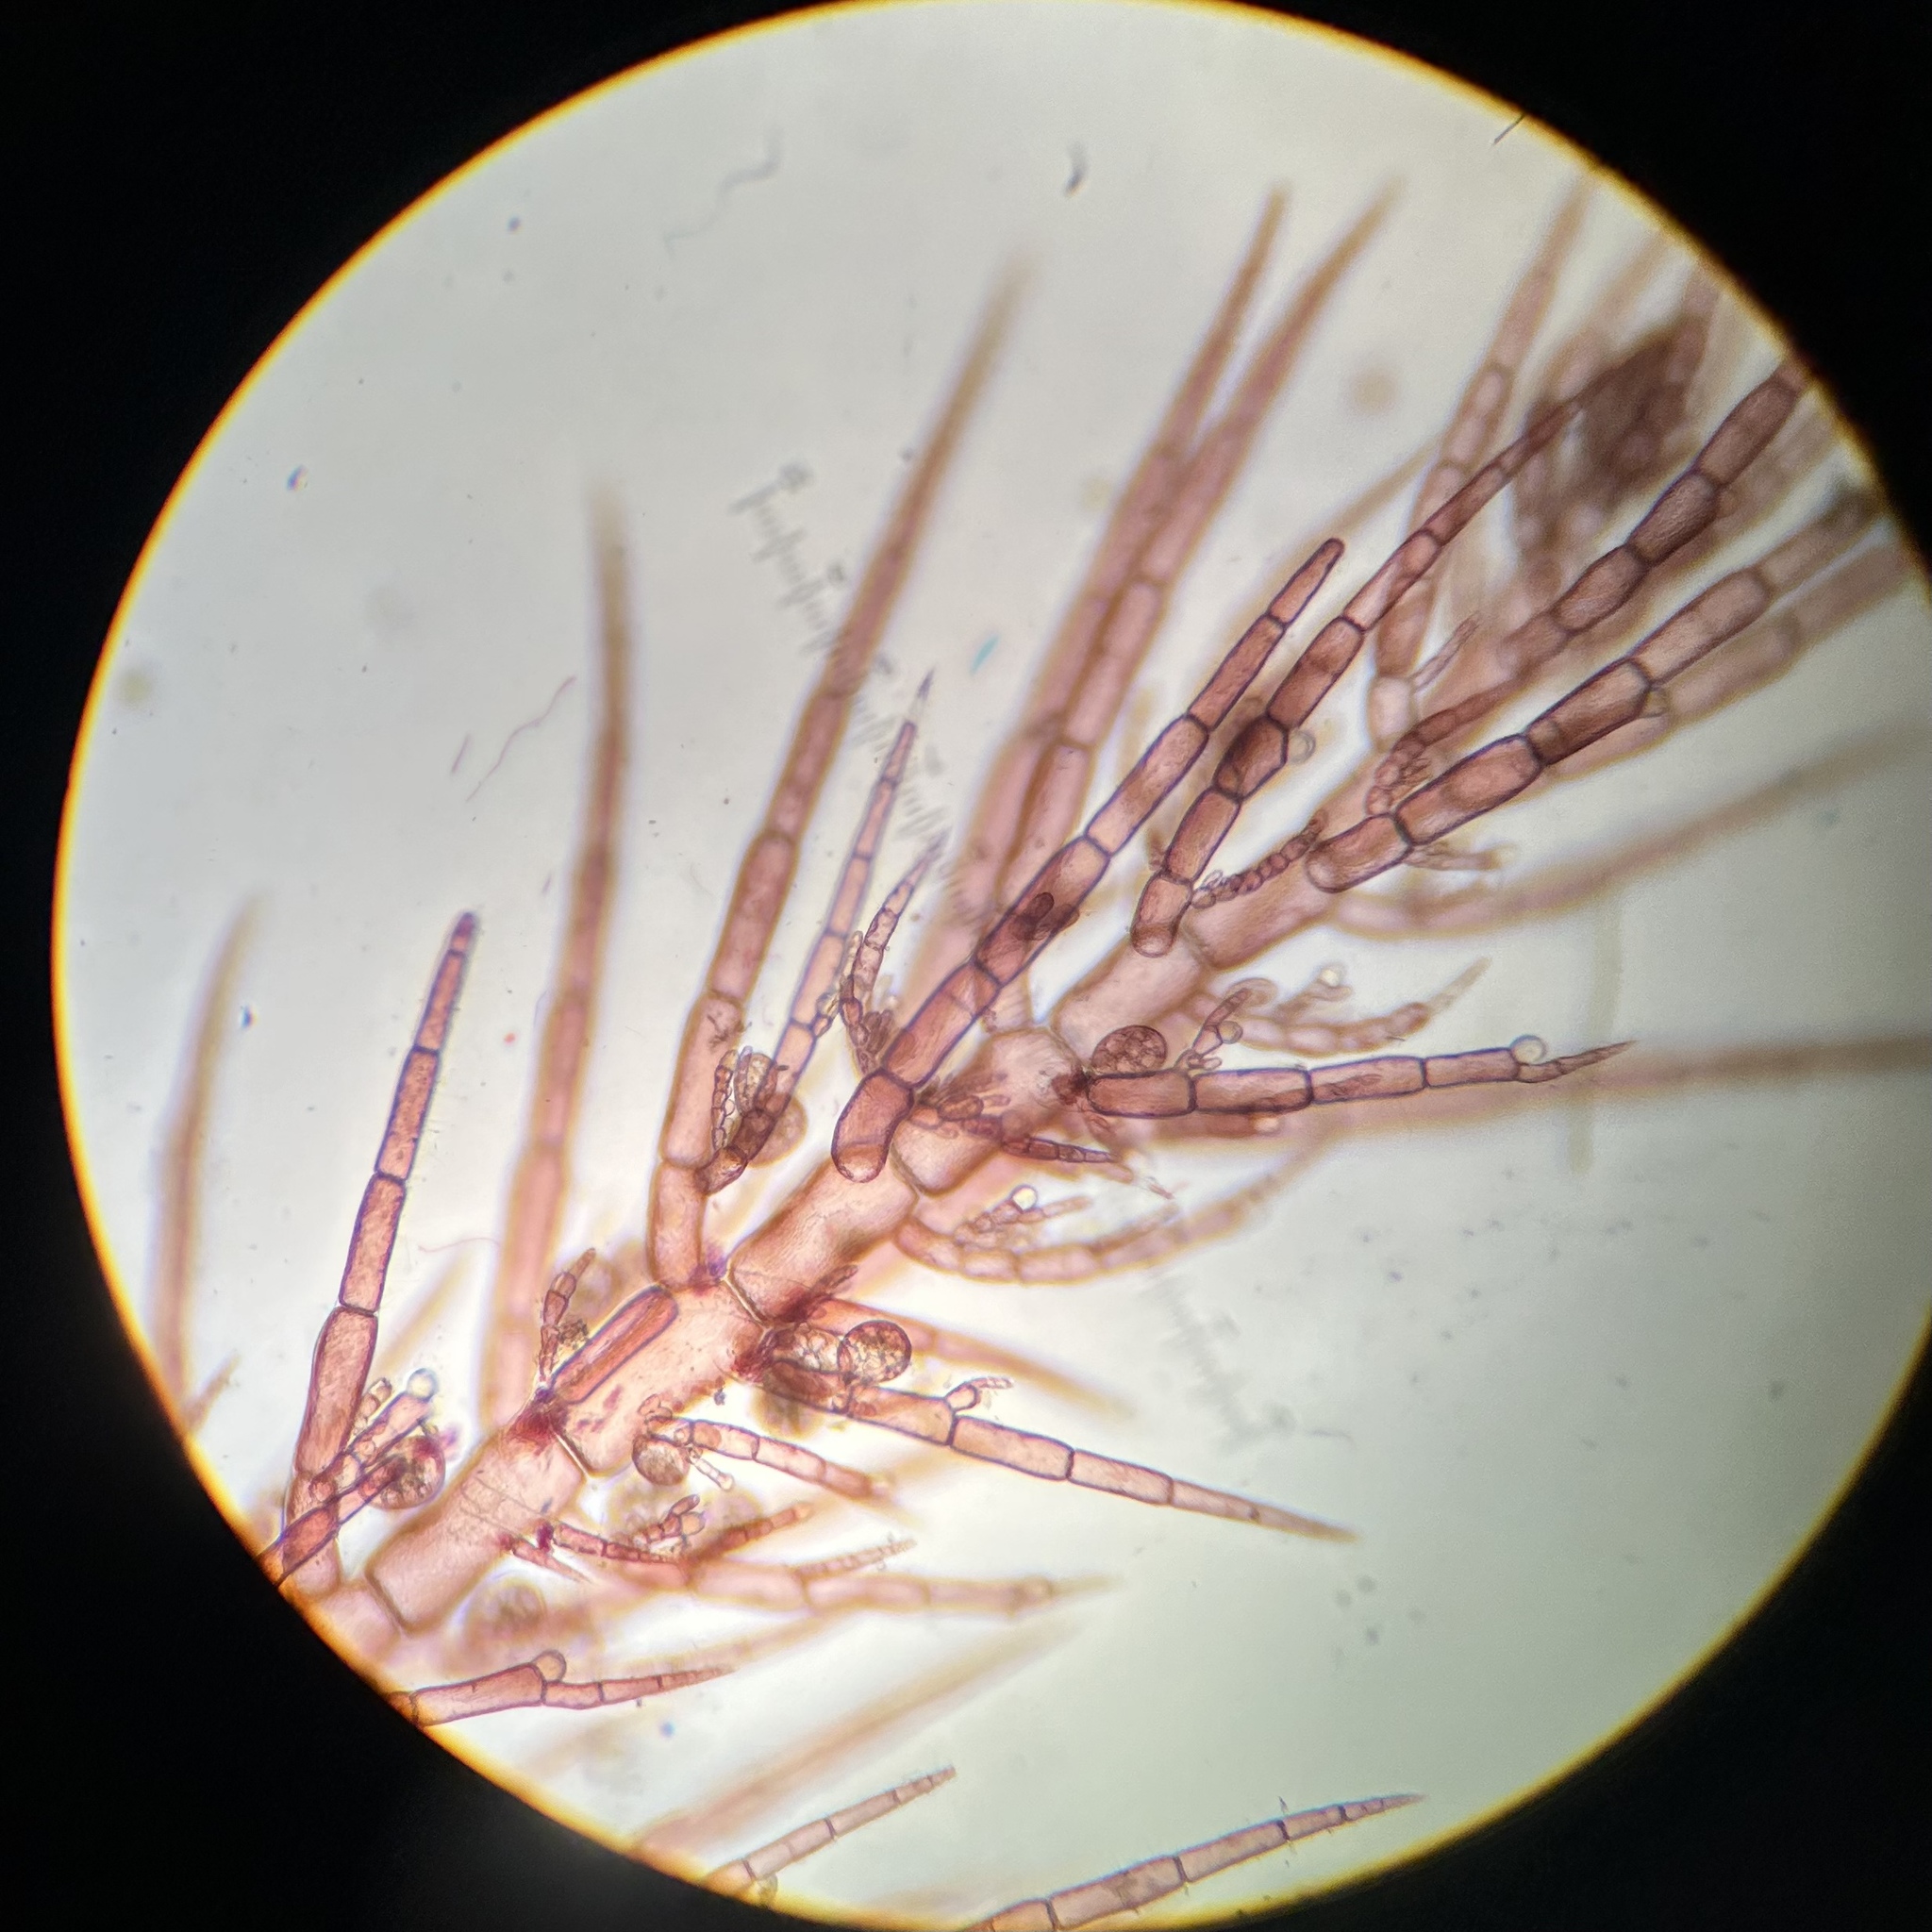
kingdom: Plantae
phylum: Rhodophyta
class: Florideophyceae
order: Ceramiales
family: Ceramiaceae
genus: Hollenbergia
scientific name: Hollenbergia subulata
